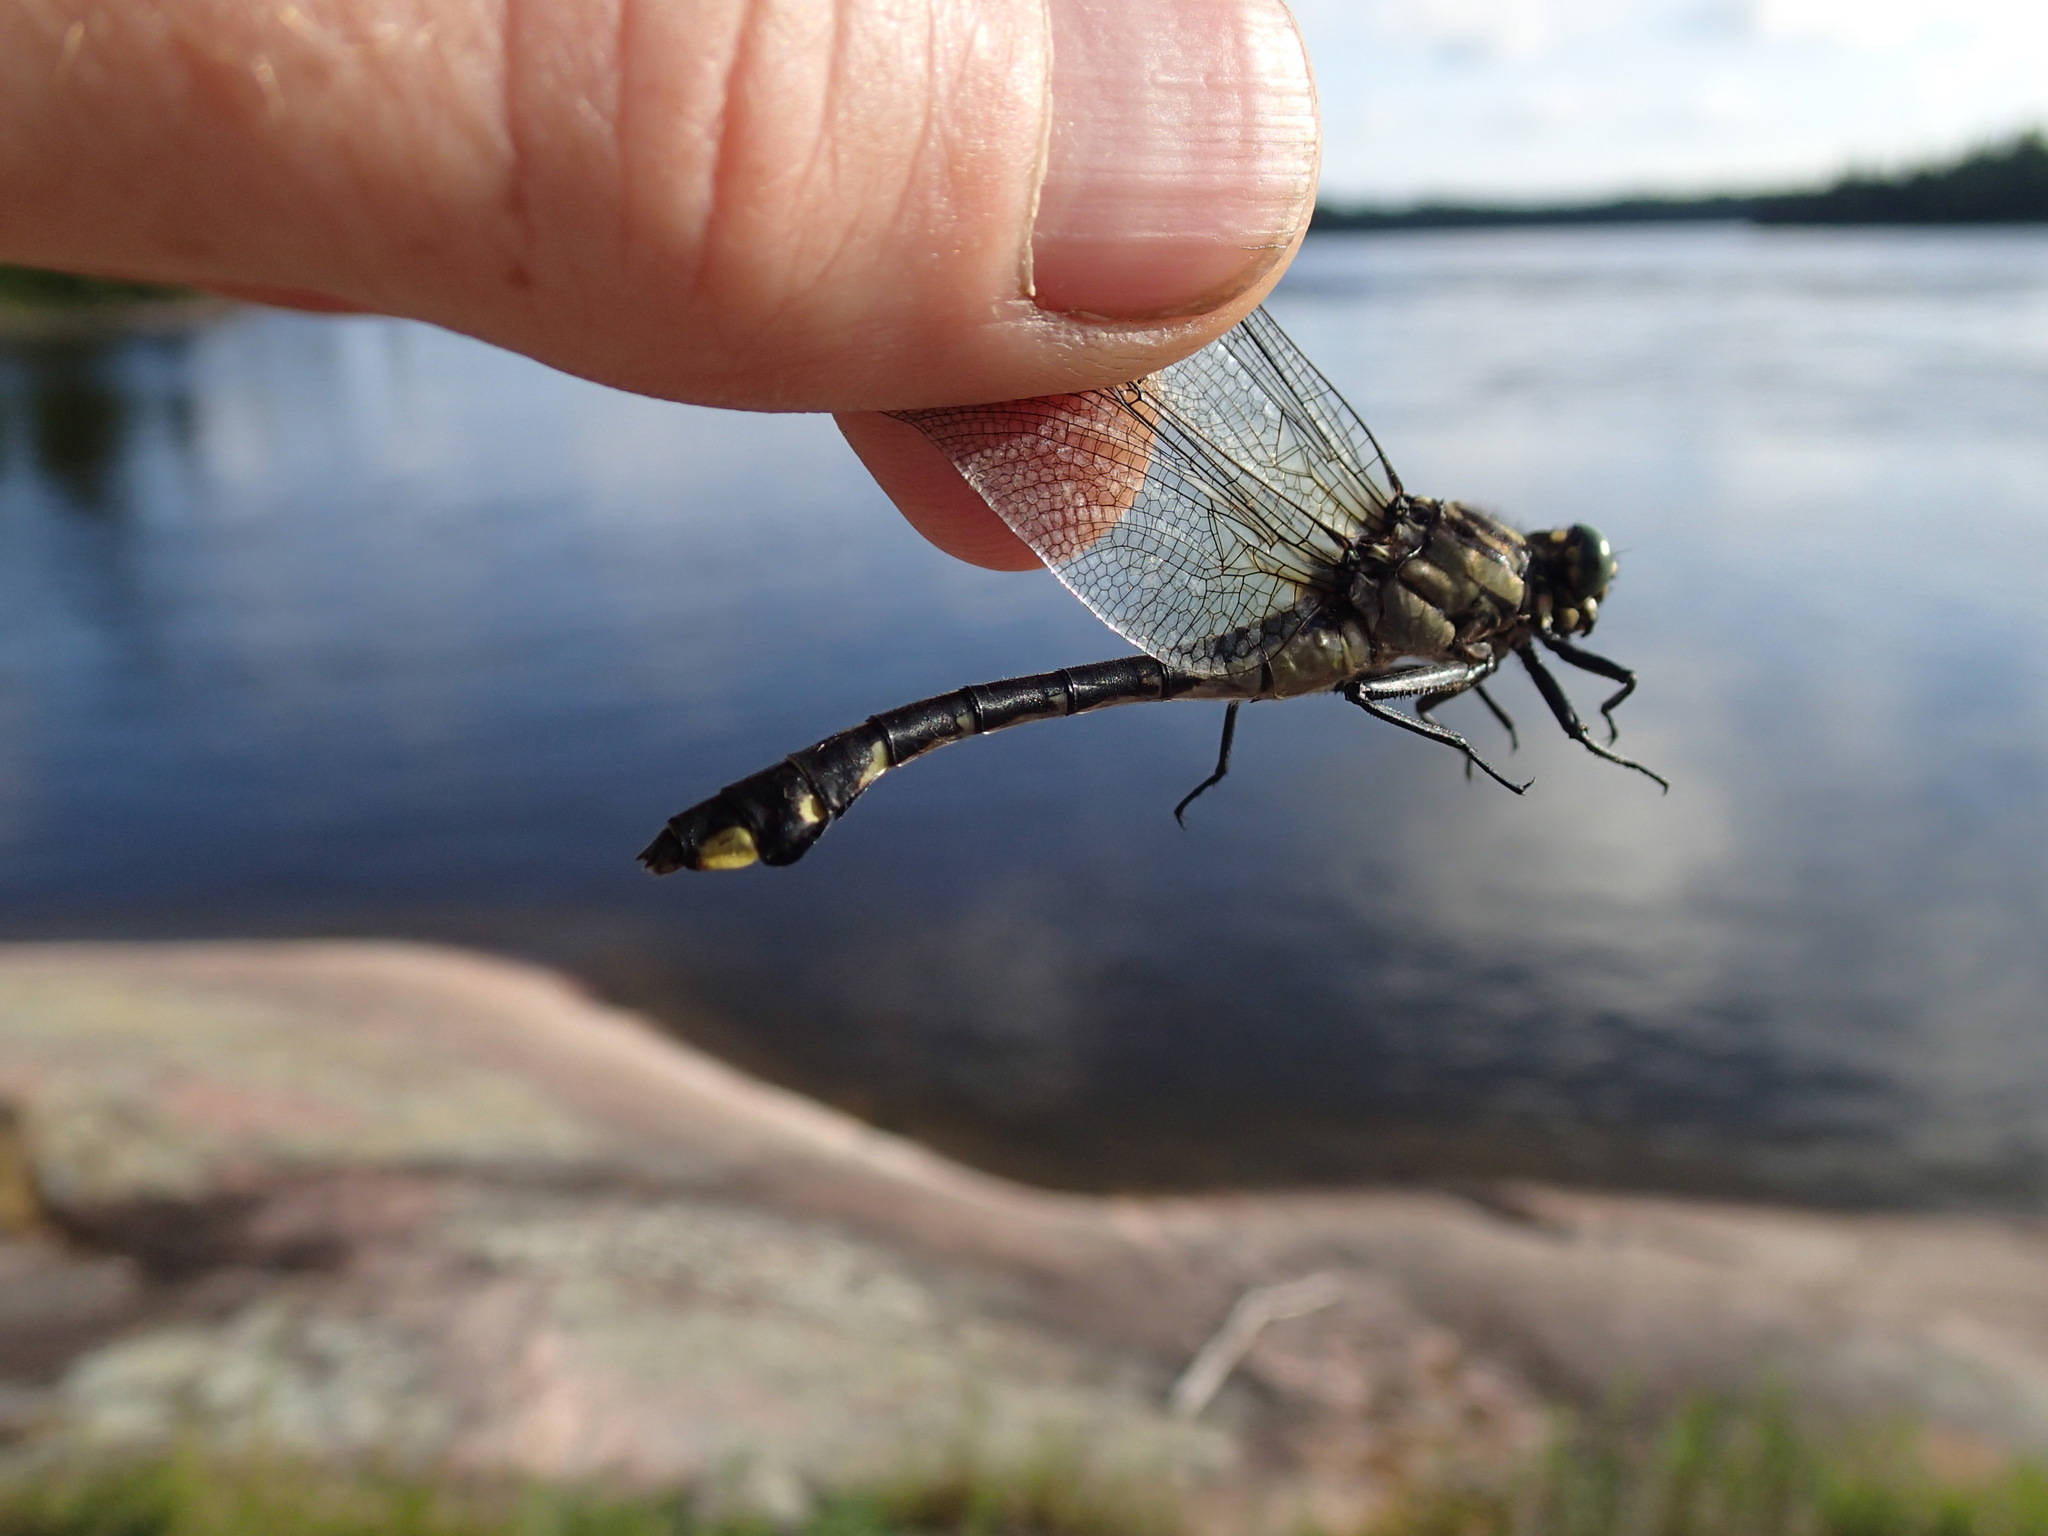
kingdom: Animalia
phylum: Arthropoda
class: Insecta
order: Odonata
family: Gomphidae
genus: Gomphurus
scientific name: Gomphurus vastus
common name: Cobra clubtail
